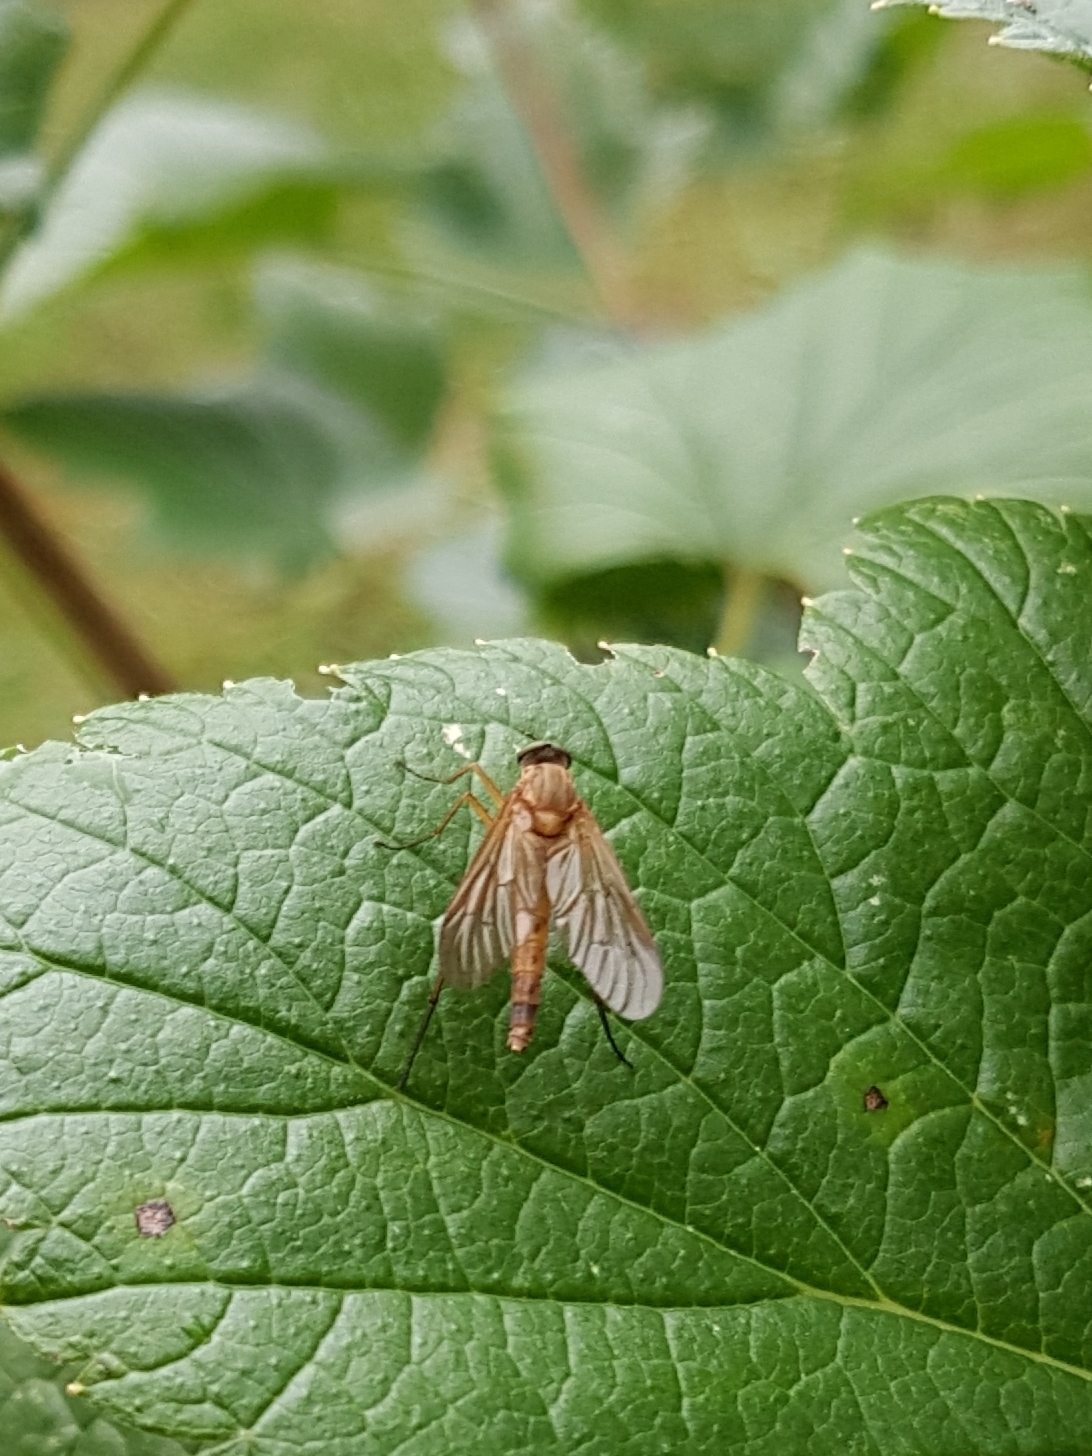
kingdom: Animalia
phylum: Arthropoda
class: Insecta
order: Diptera
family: Rhagionidae
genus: Rhagio
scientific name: Rhagio tringaria
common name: Marsh snipefly
